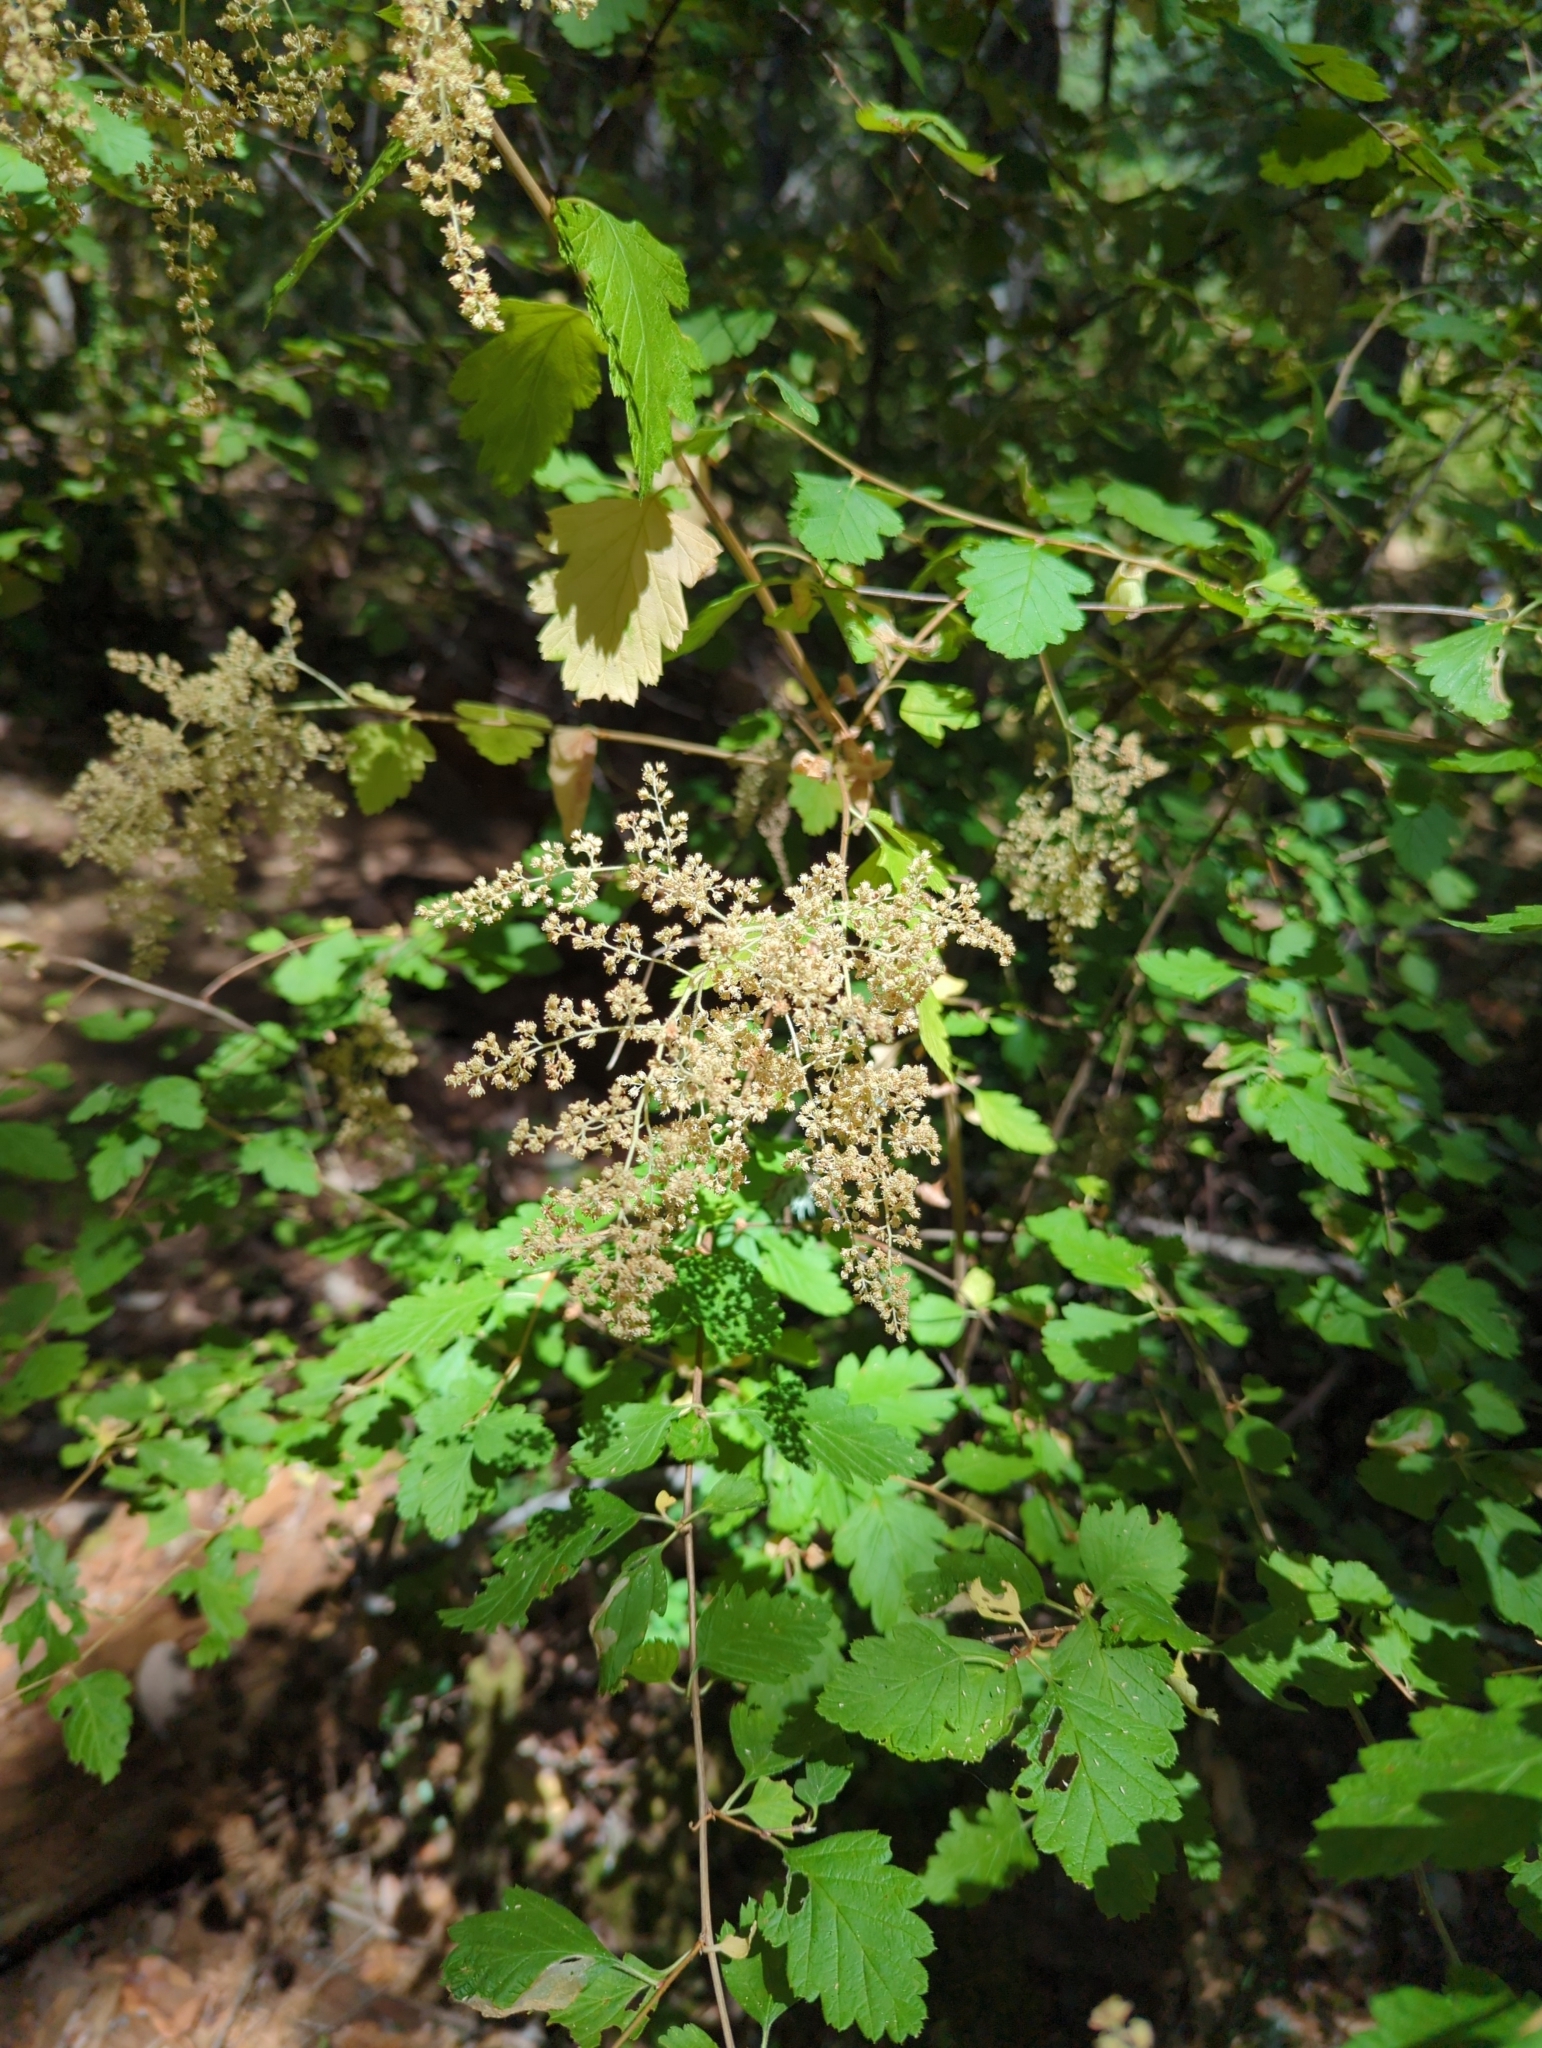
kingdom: Plantae
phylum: Tracheophyta
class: Magnoliopsida
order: Rosales
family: Rosaceae
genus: Holodiscus
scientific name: Holodiscus discolor
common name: Oceanspray
